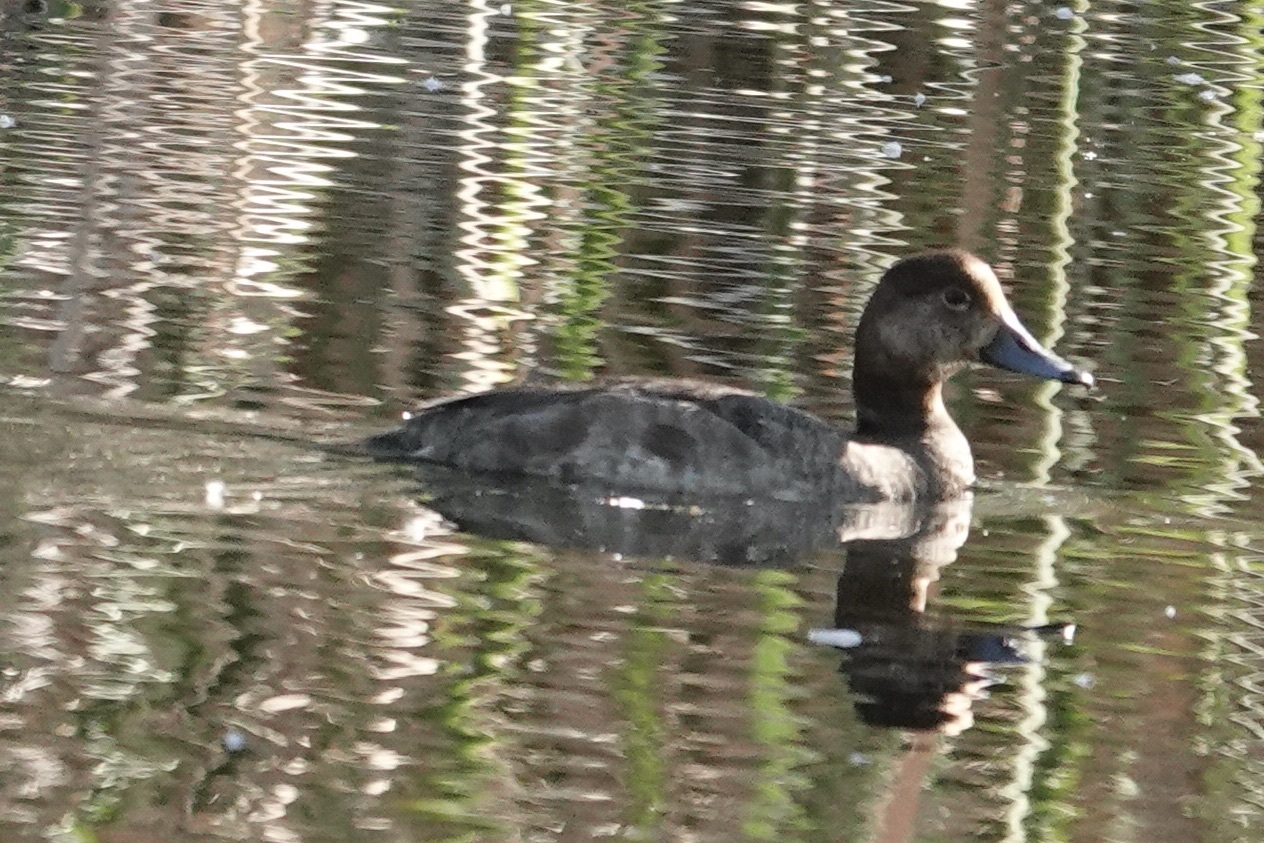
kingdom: Animalia
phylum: Chordata
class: Aves
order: Anseriformes
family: Anatidae
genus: Aythya
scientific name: Aythya americana
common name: Redhead
